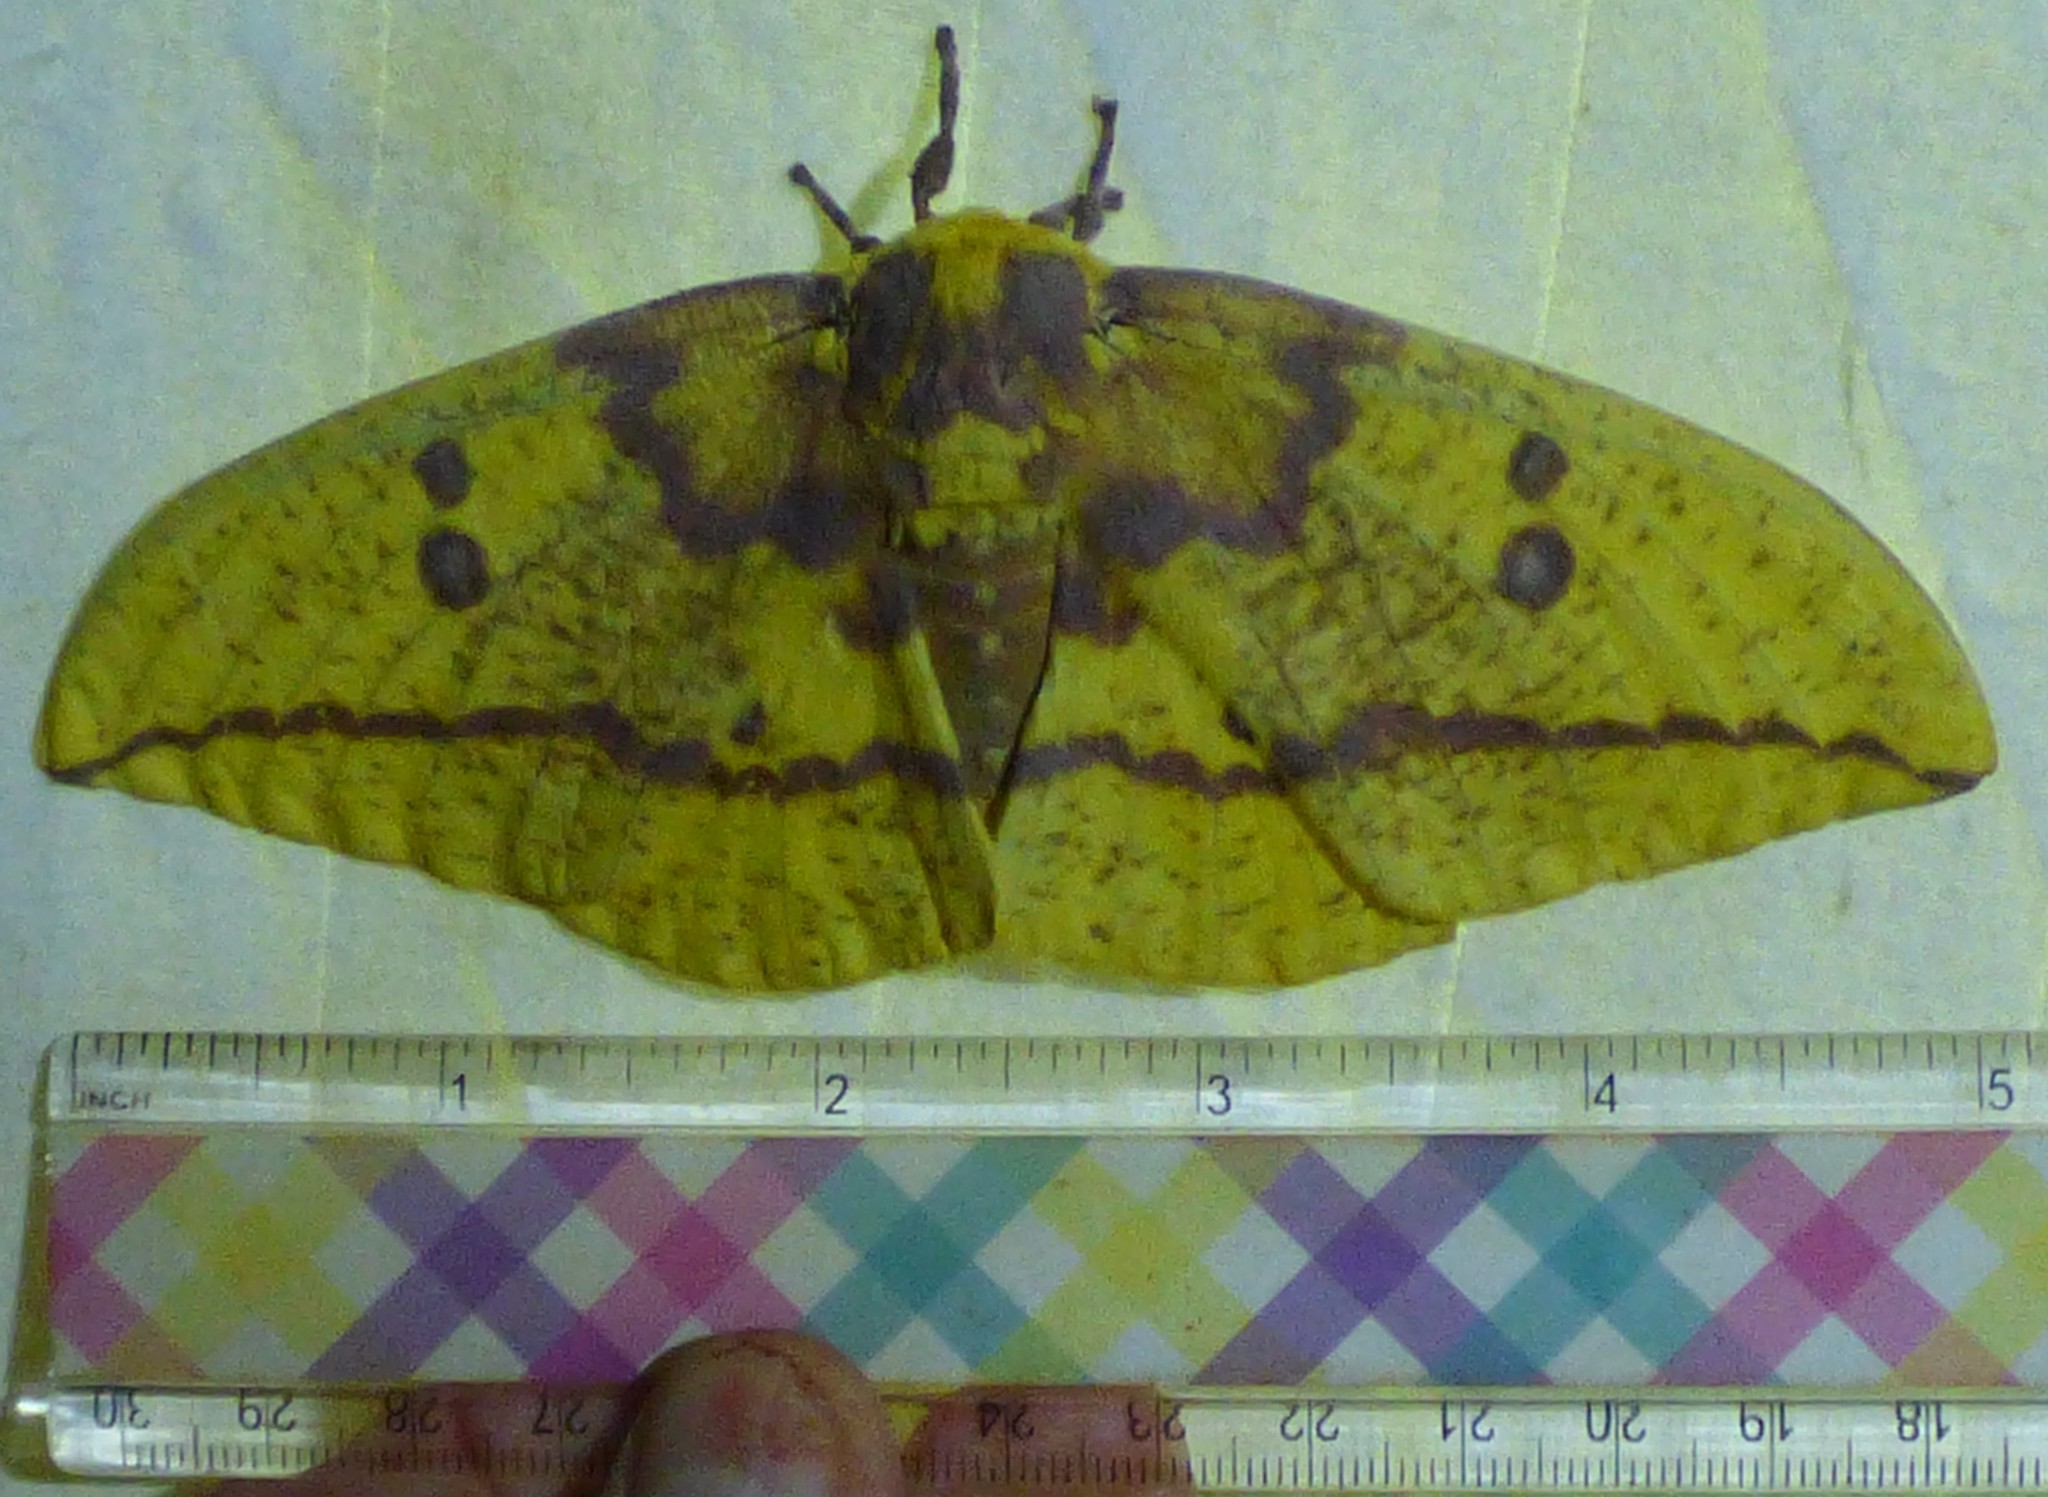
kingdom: Animalia
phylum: Arthropoda
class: Insecta
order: Lepidoptera
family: Saturniidae
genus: Eacles
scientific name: Eacles imperialis
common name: Imperial moth
